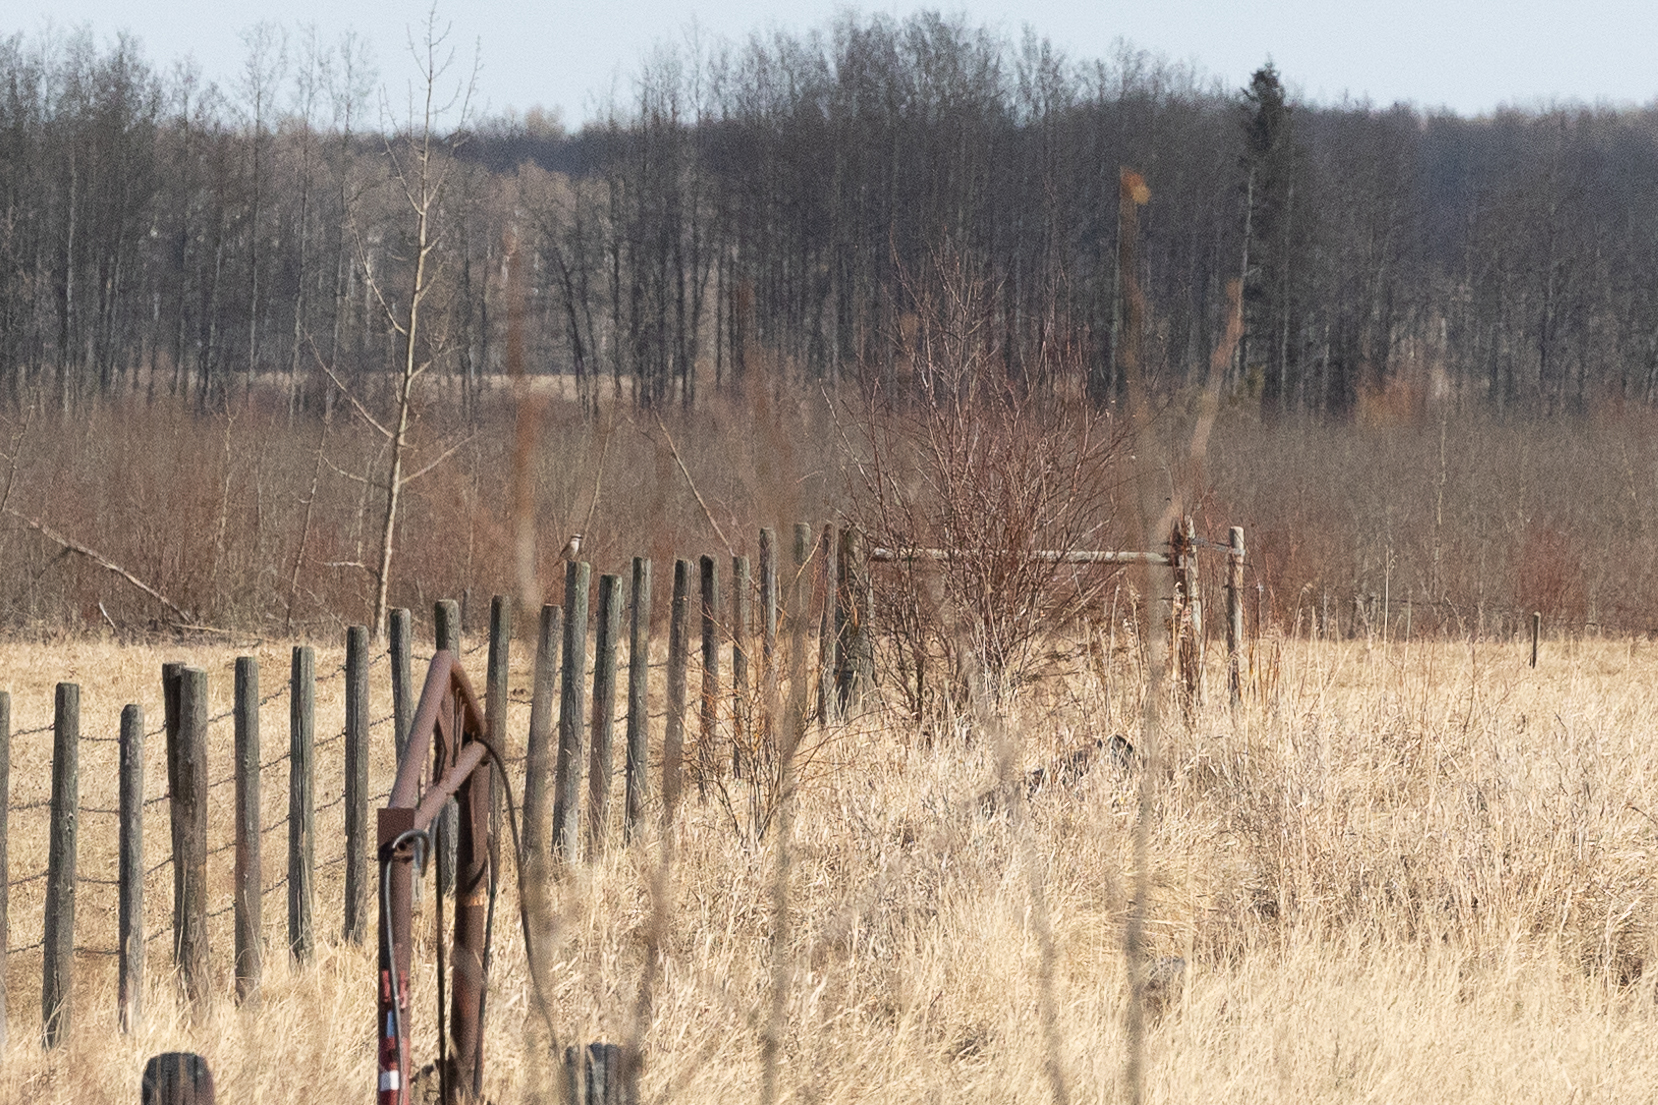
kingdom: Animalia
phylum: Chordata
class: Aves
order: Passeriformes
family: Laniidae
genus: Lanius
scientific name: Lanius borealis
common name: Northern shrike
